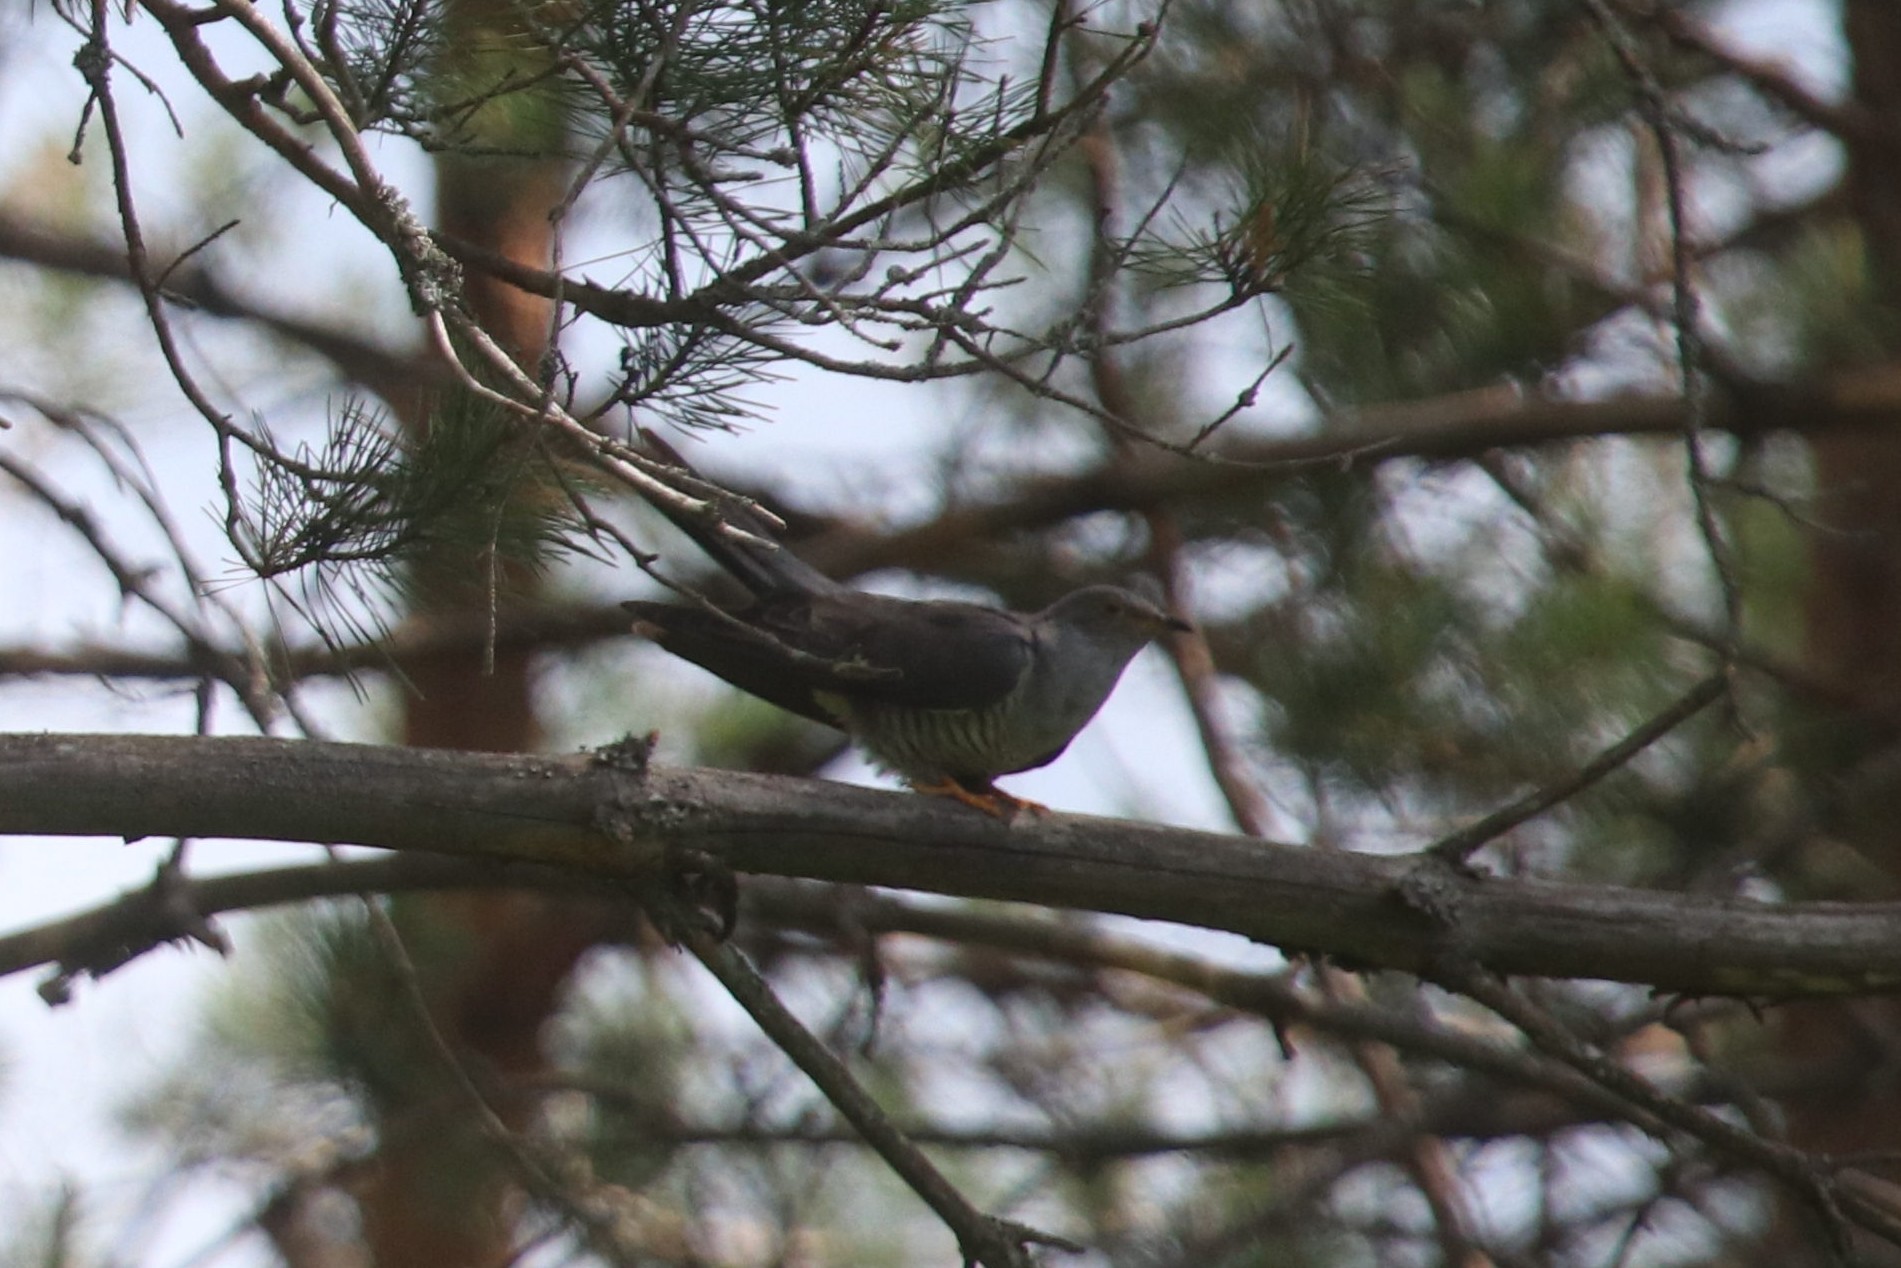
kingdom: Animalia
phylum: Chordata
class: Aves
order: Cuculiformes
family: Cuculidae
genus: Cuculus
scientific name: Cuculus canorus
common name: Common cuckoo
